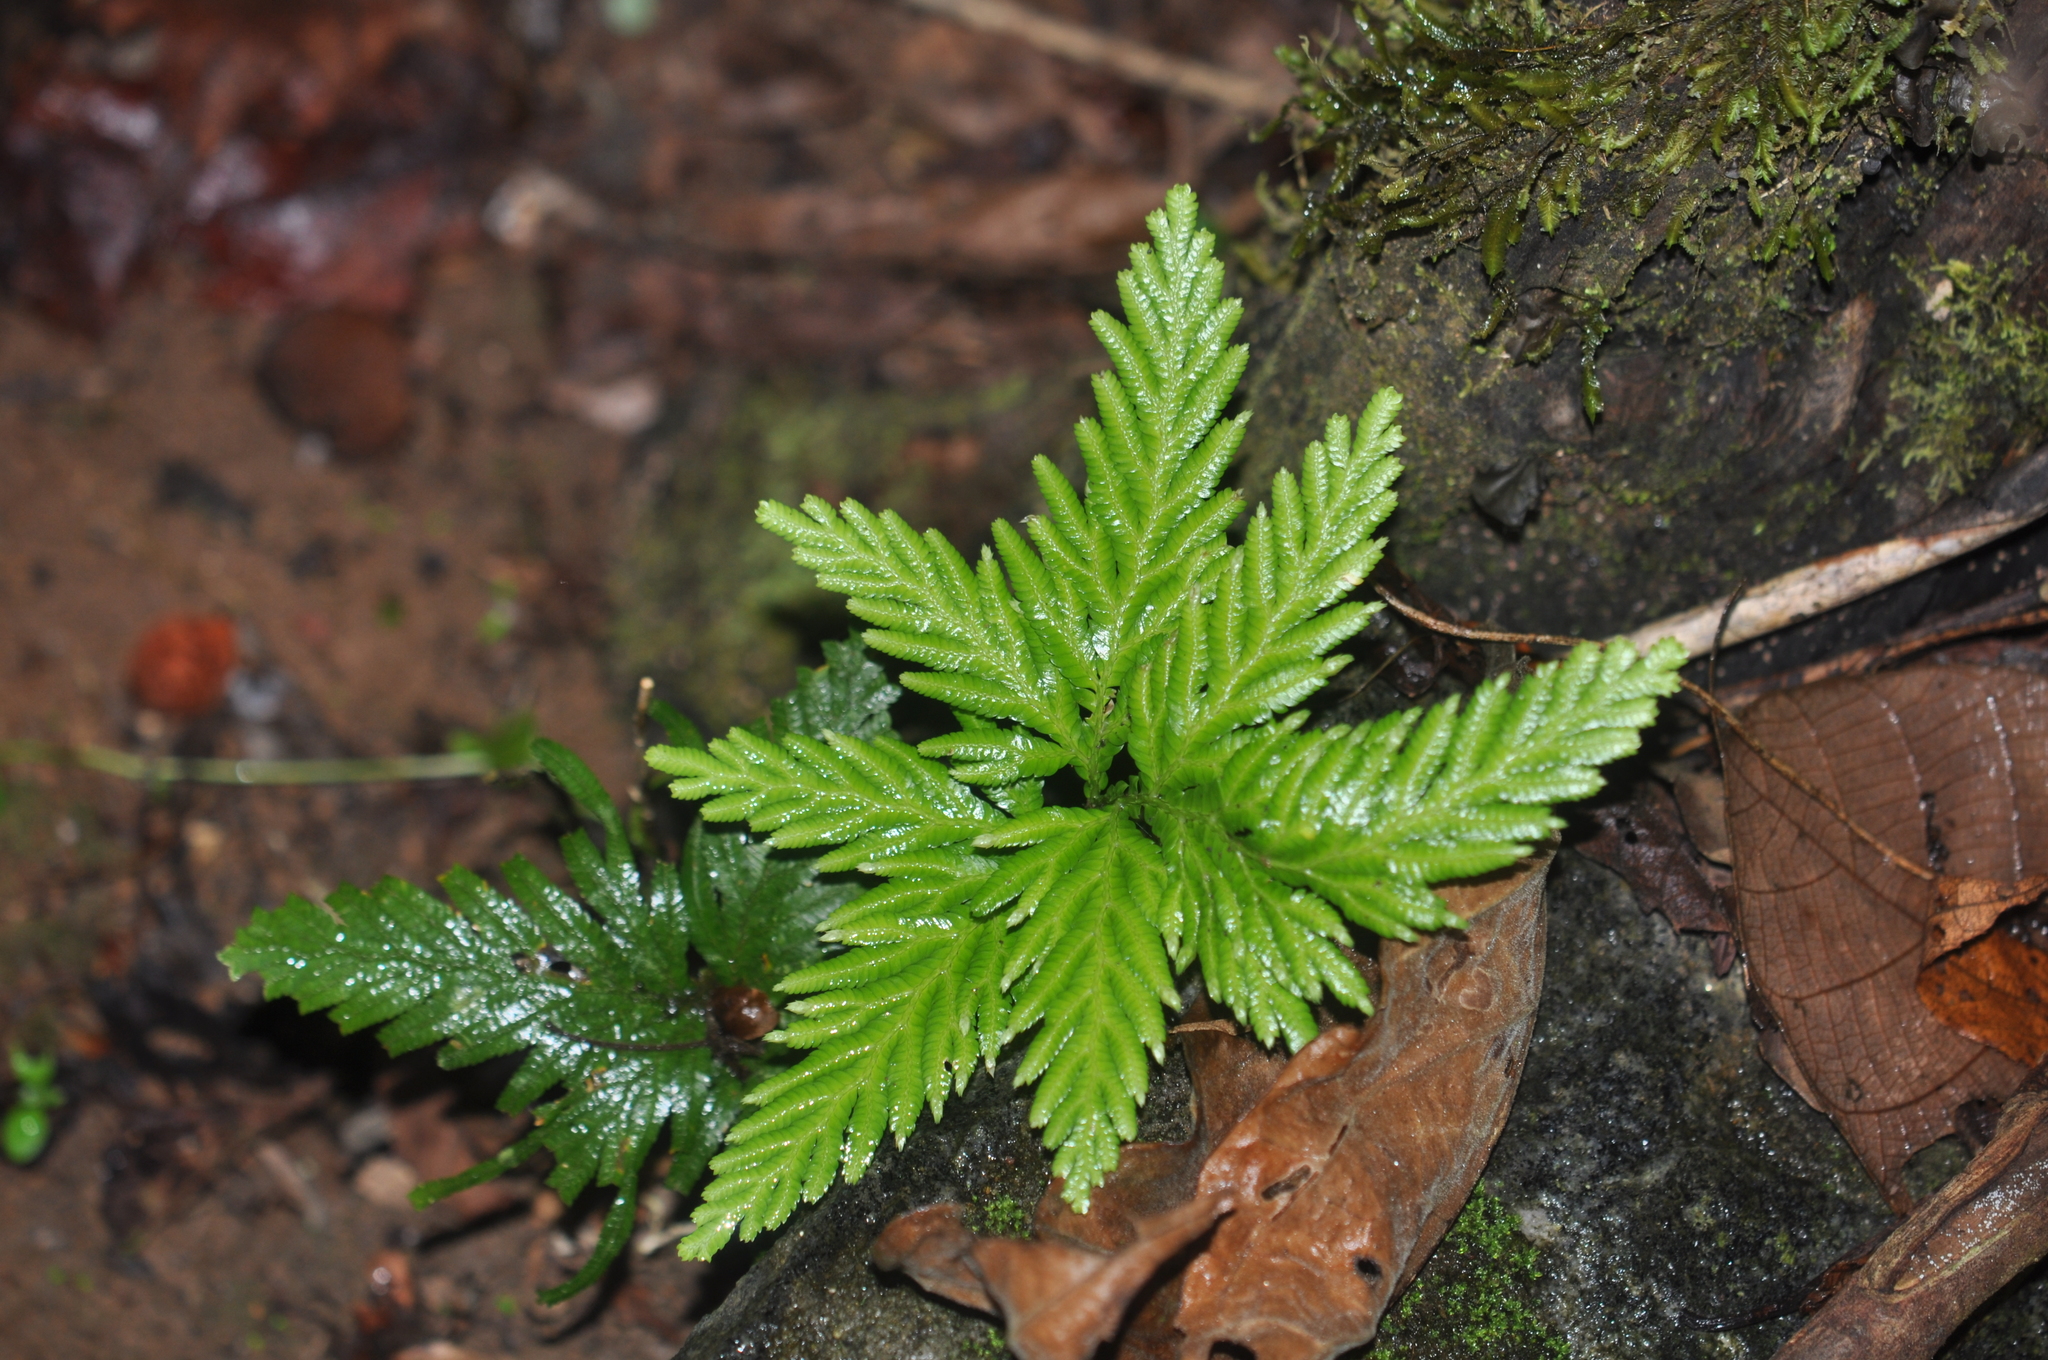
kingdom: Plantae
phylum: Tracheophyta
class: Lycopodiopsida
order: Selaginellales
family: Selaginellaceae
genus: Selaginella
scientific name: Selaginella lyallii
